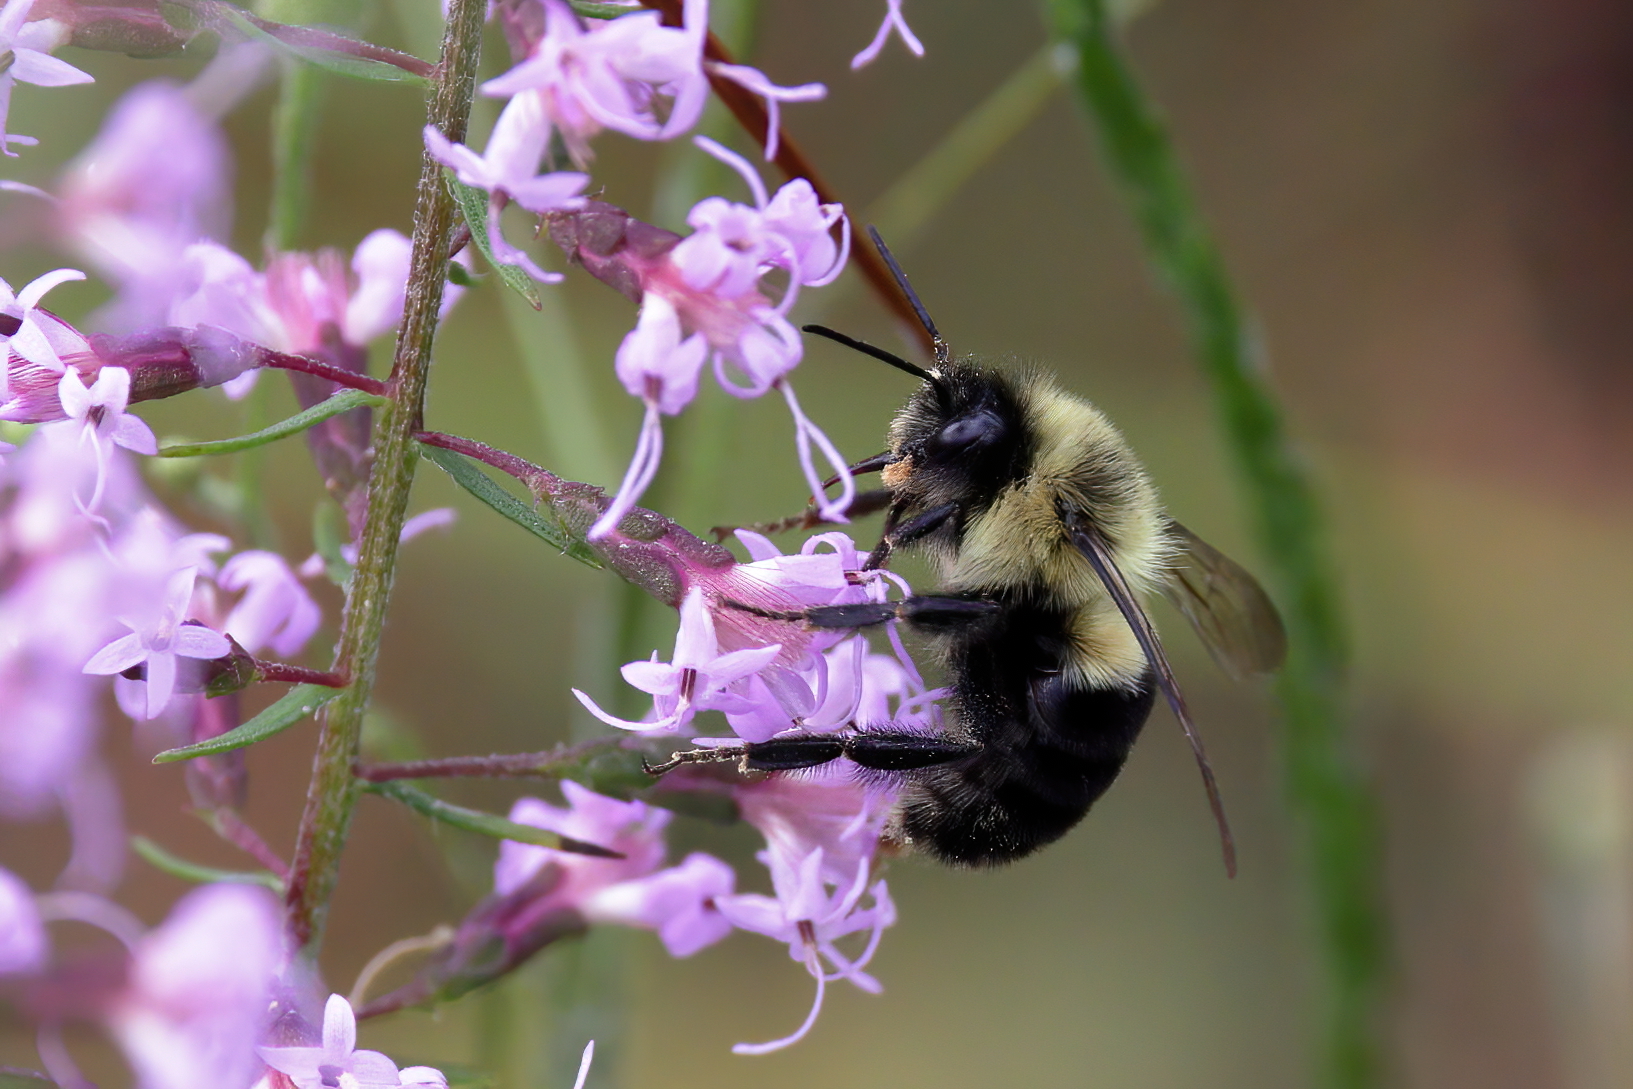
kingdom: Animalia
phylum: Arthropoda
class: Insecta
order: Hymenoptera
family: Apidae
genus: Bombus
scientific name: Bombus impatiens
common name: Common eastern bumble bee
